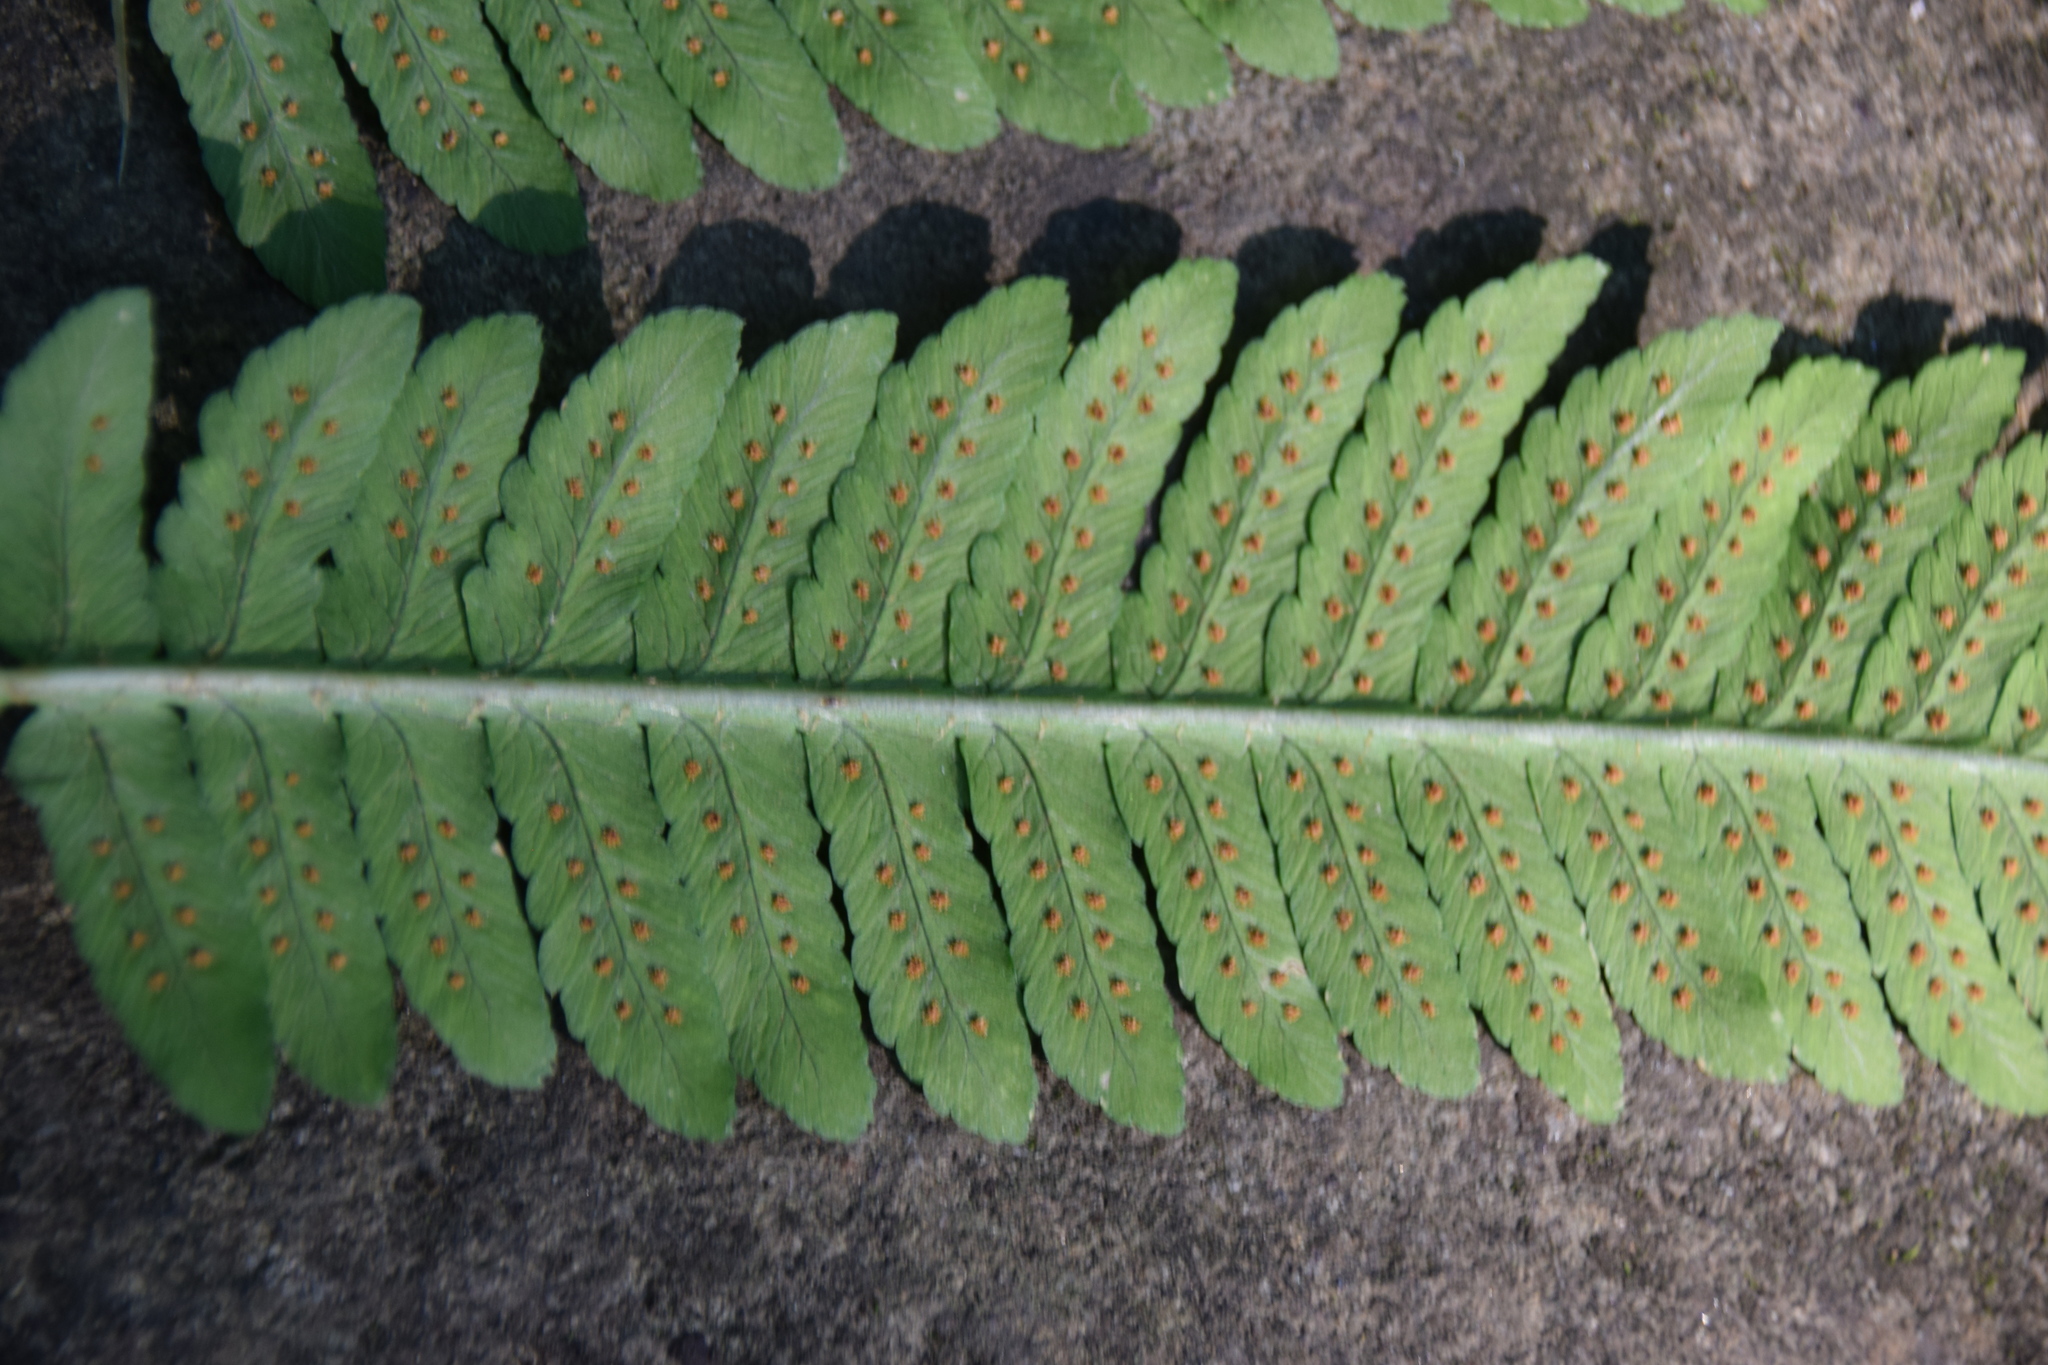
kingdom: Plantae
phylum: Tracheophyta
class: Polypodiopsida
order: Polypodiales
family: Dryopteridaceae
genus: Dryopteris
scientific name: Dryopteris goldieana
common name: Goldie's fern
